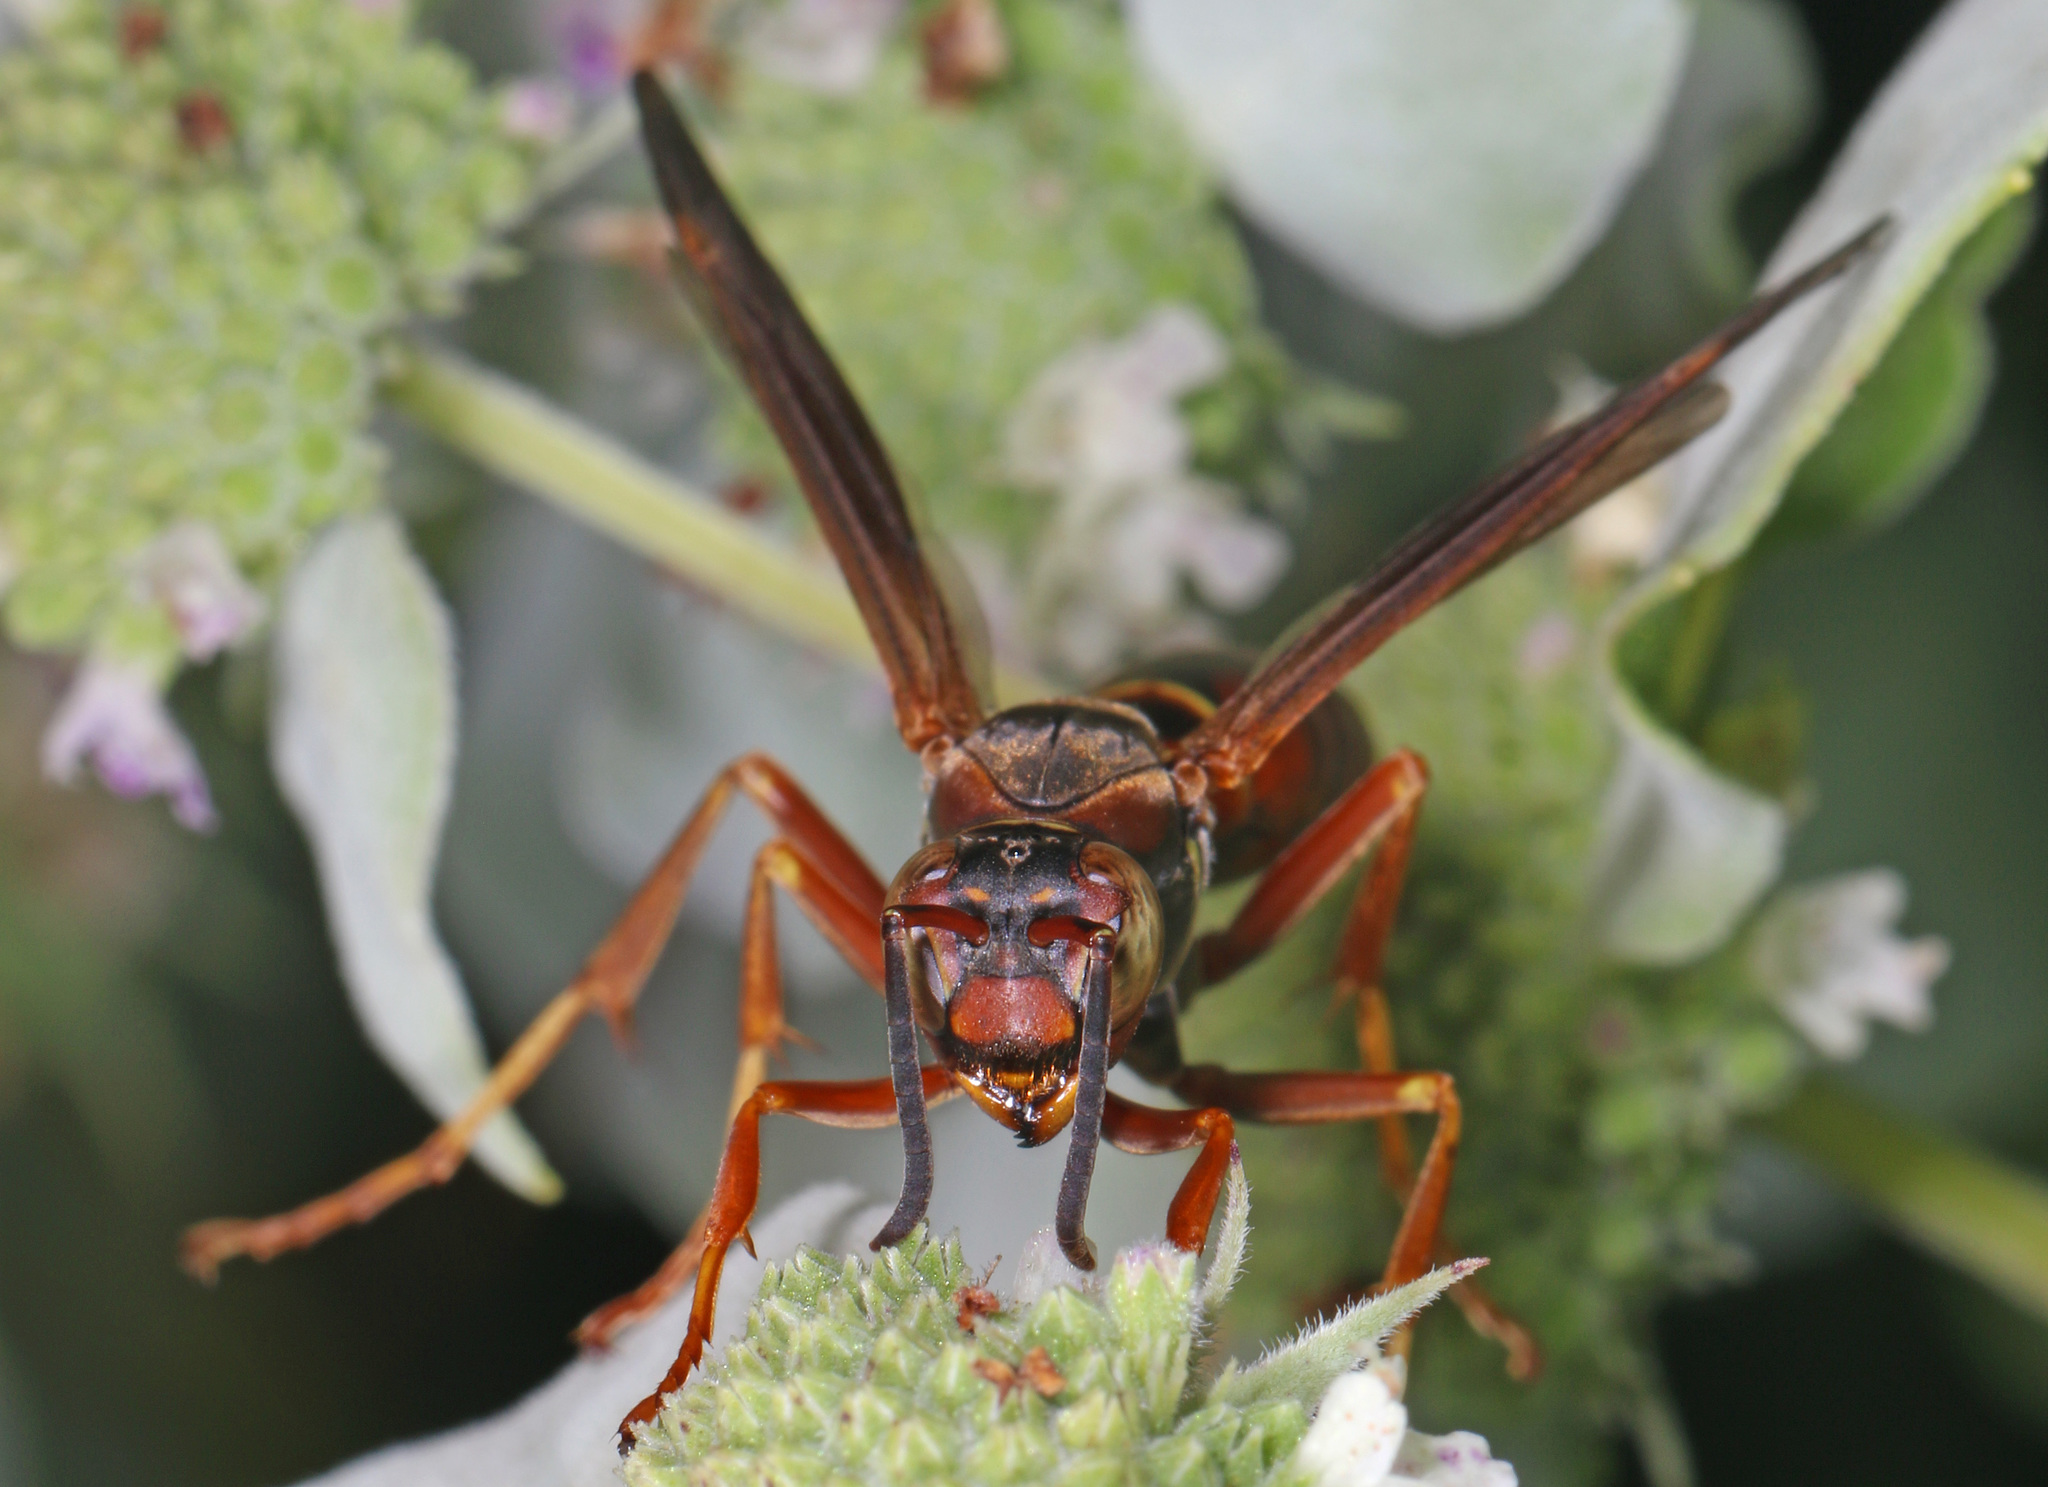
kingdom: Animalia
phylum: Arthropoda
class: Insecta
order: Hymenoptera
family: Eumenidae
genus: Polistes
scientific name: Polistes fuscatus
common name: Dark paper wasp
